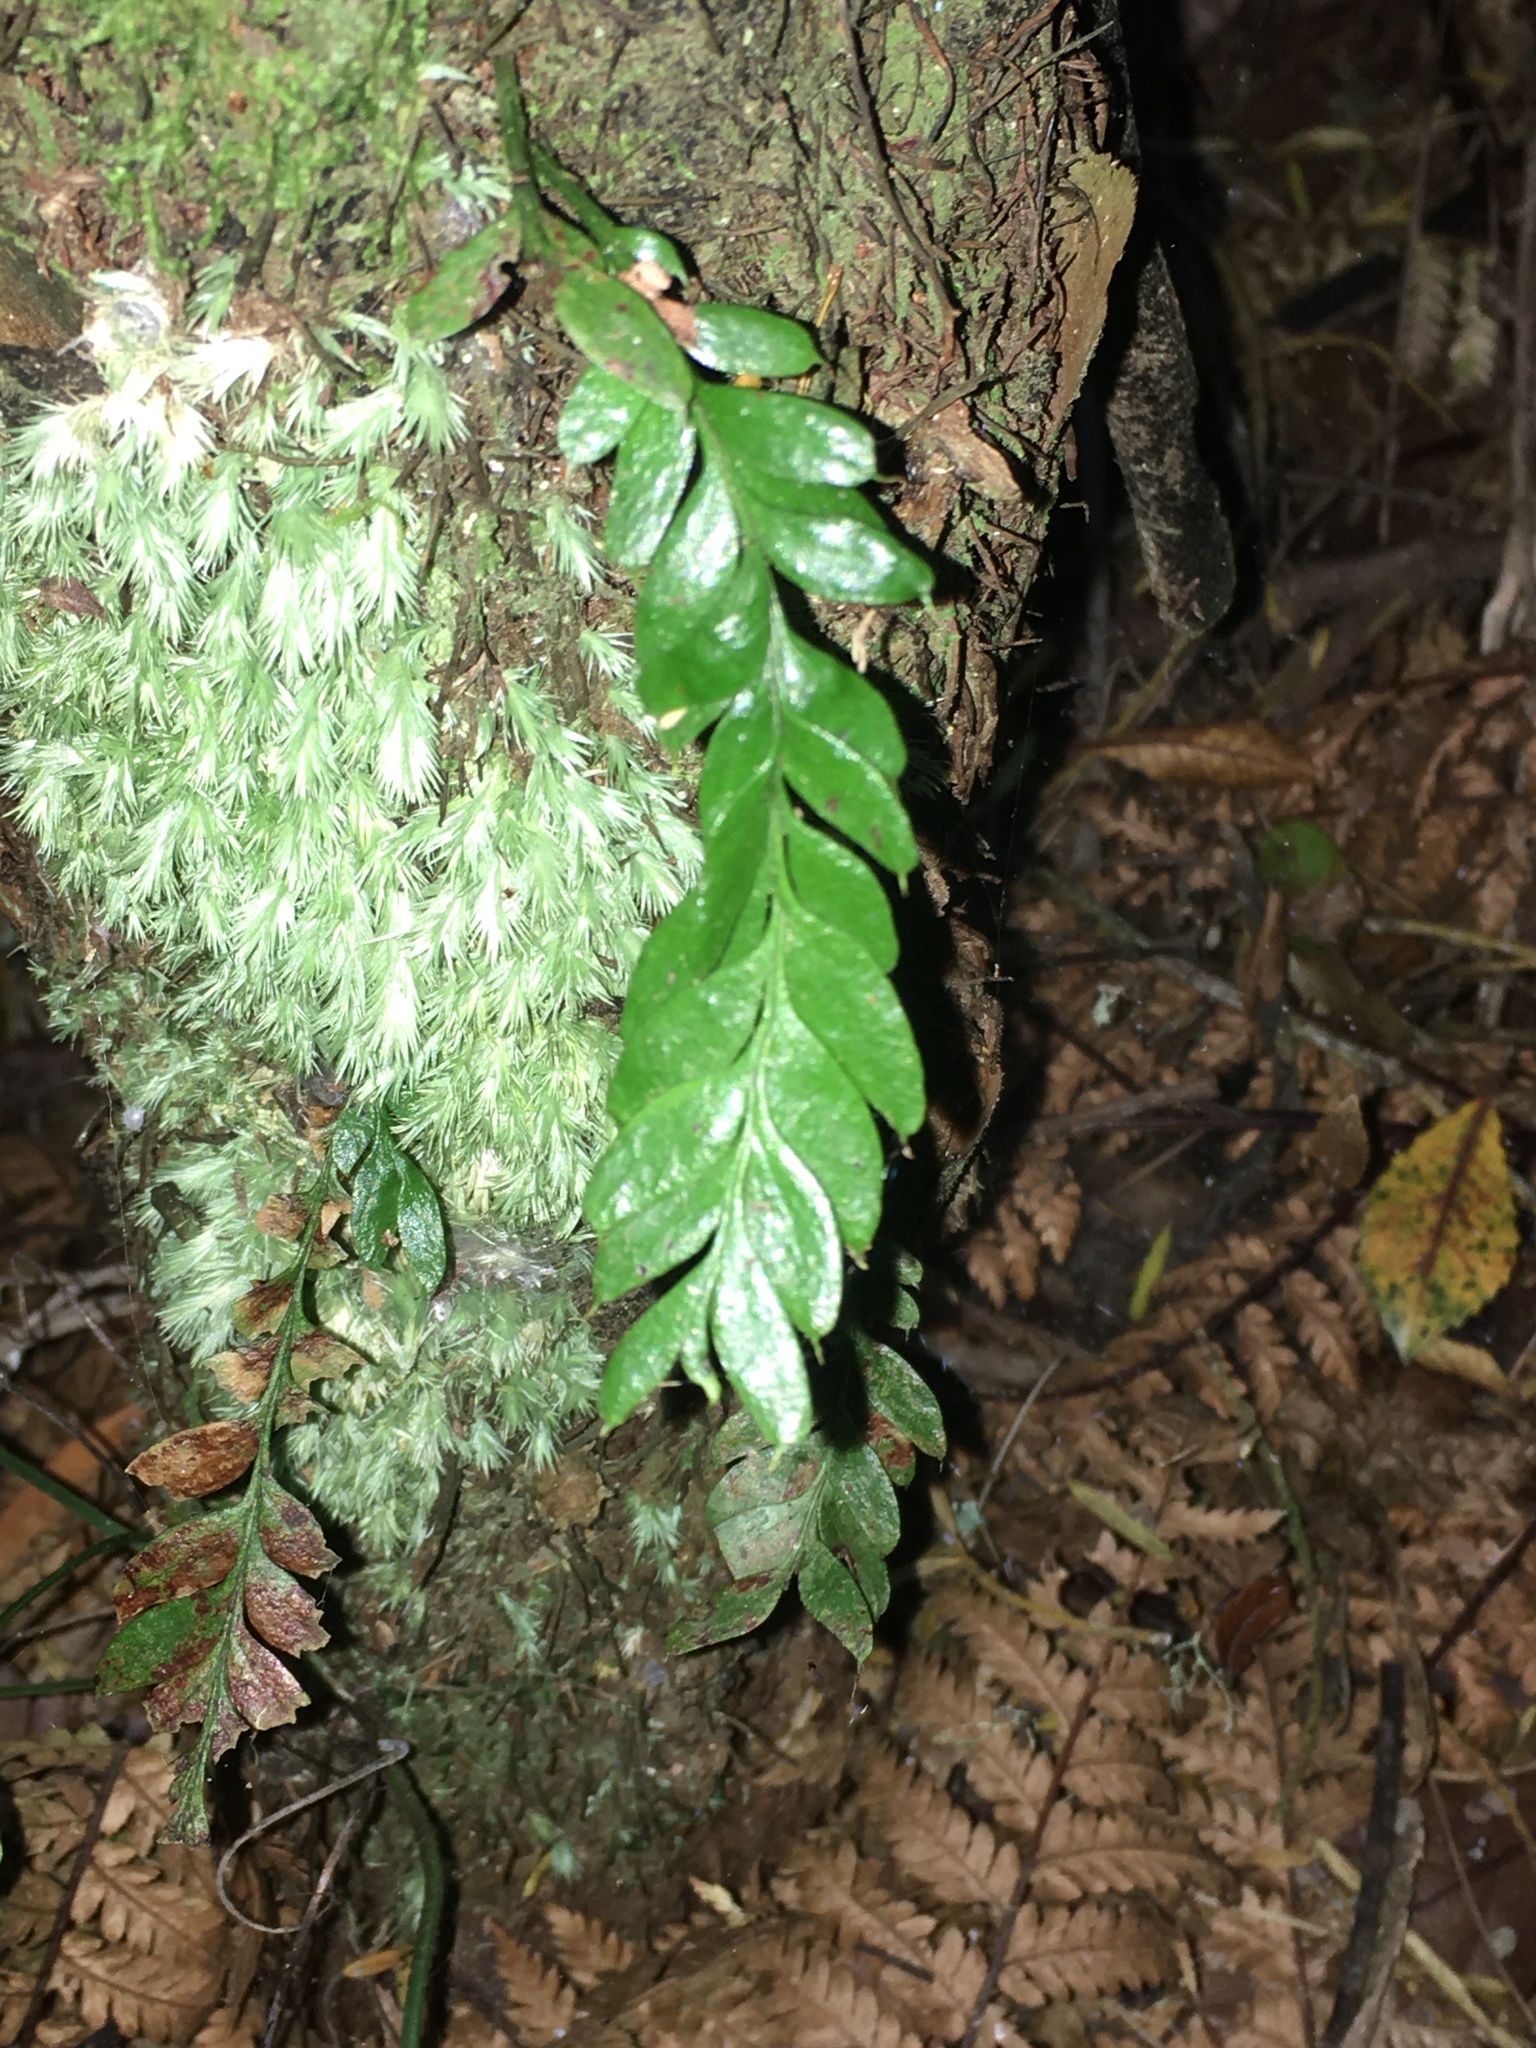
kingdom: Plantae
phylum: Tracheophyta
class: Polypodiopsida
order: Psilotales
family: Psilotaceae
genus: Tmesipteris
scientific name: Tmesipteris lanceolata
